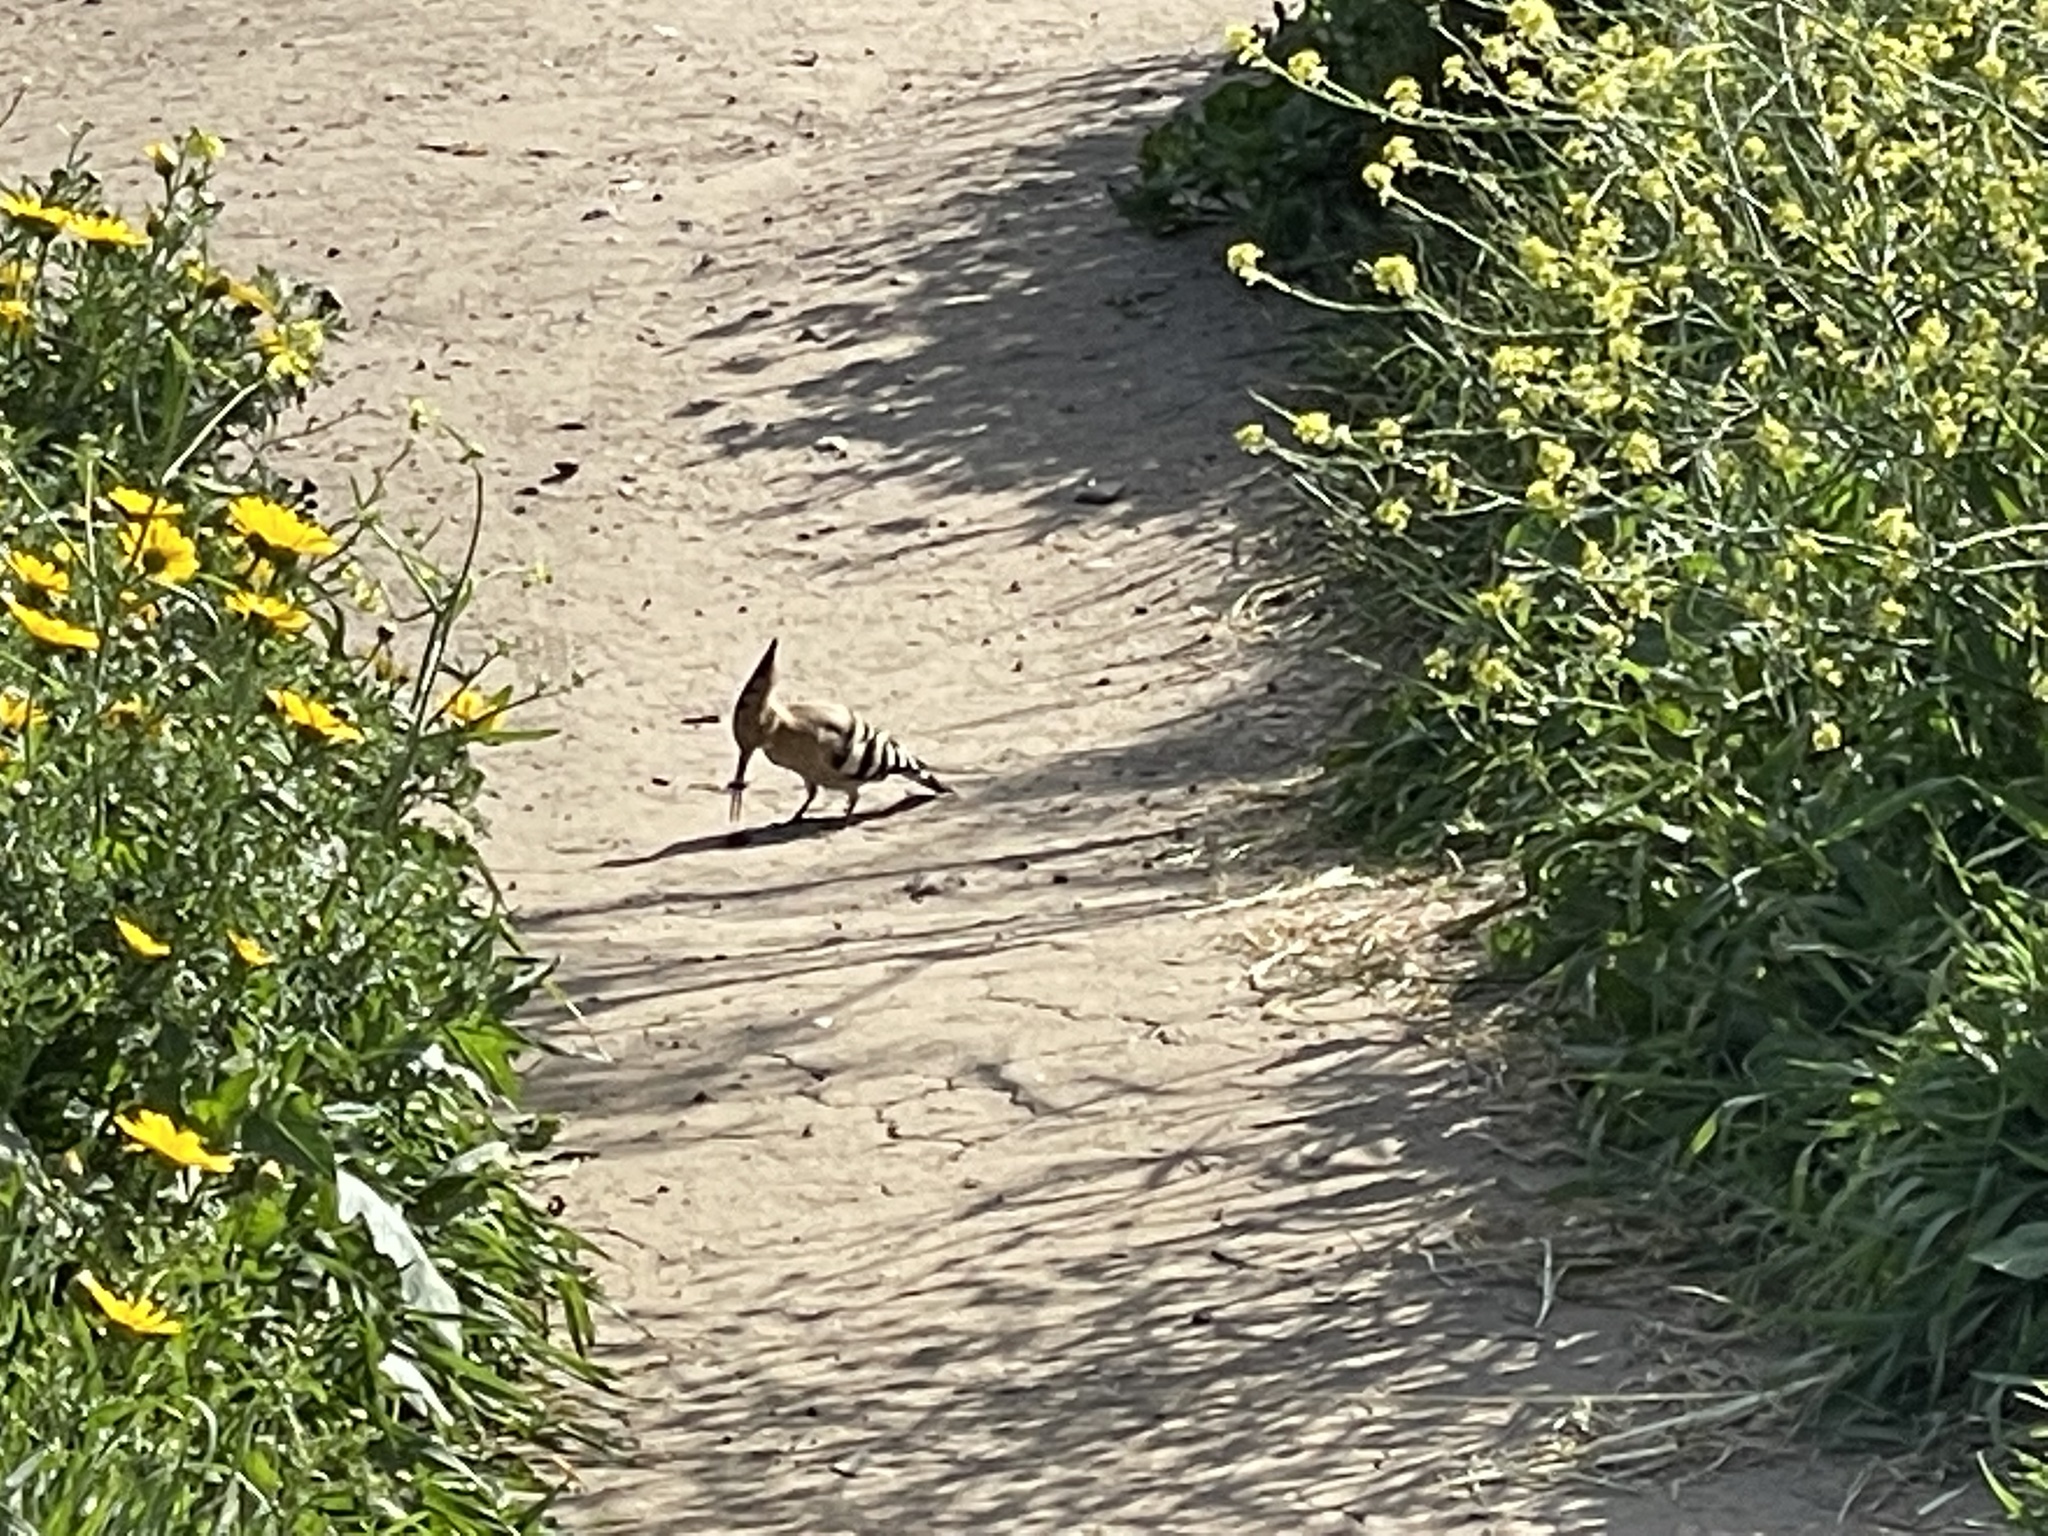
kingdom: Animalia
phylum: Chordata
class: Aves
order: Bucerotiformes
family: Upupidae
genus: Upupa
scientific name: Upupa epops
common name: Eurasian hoopoe
